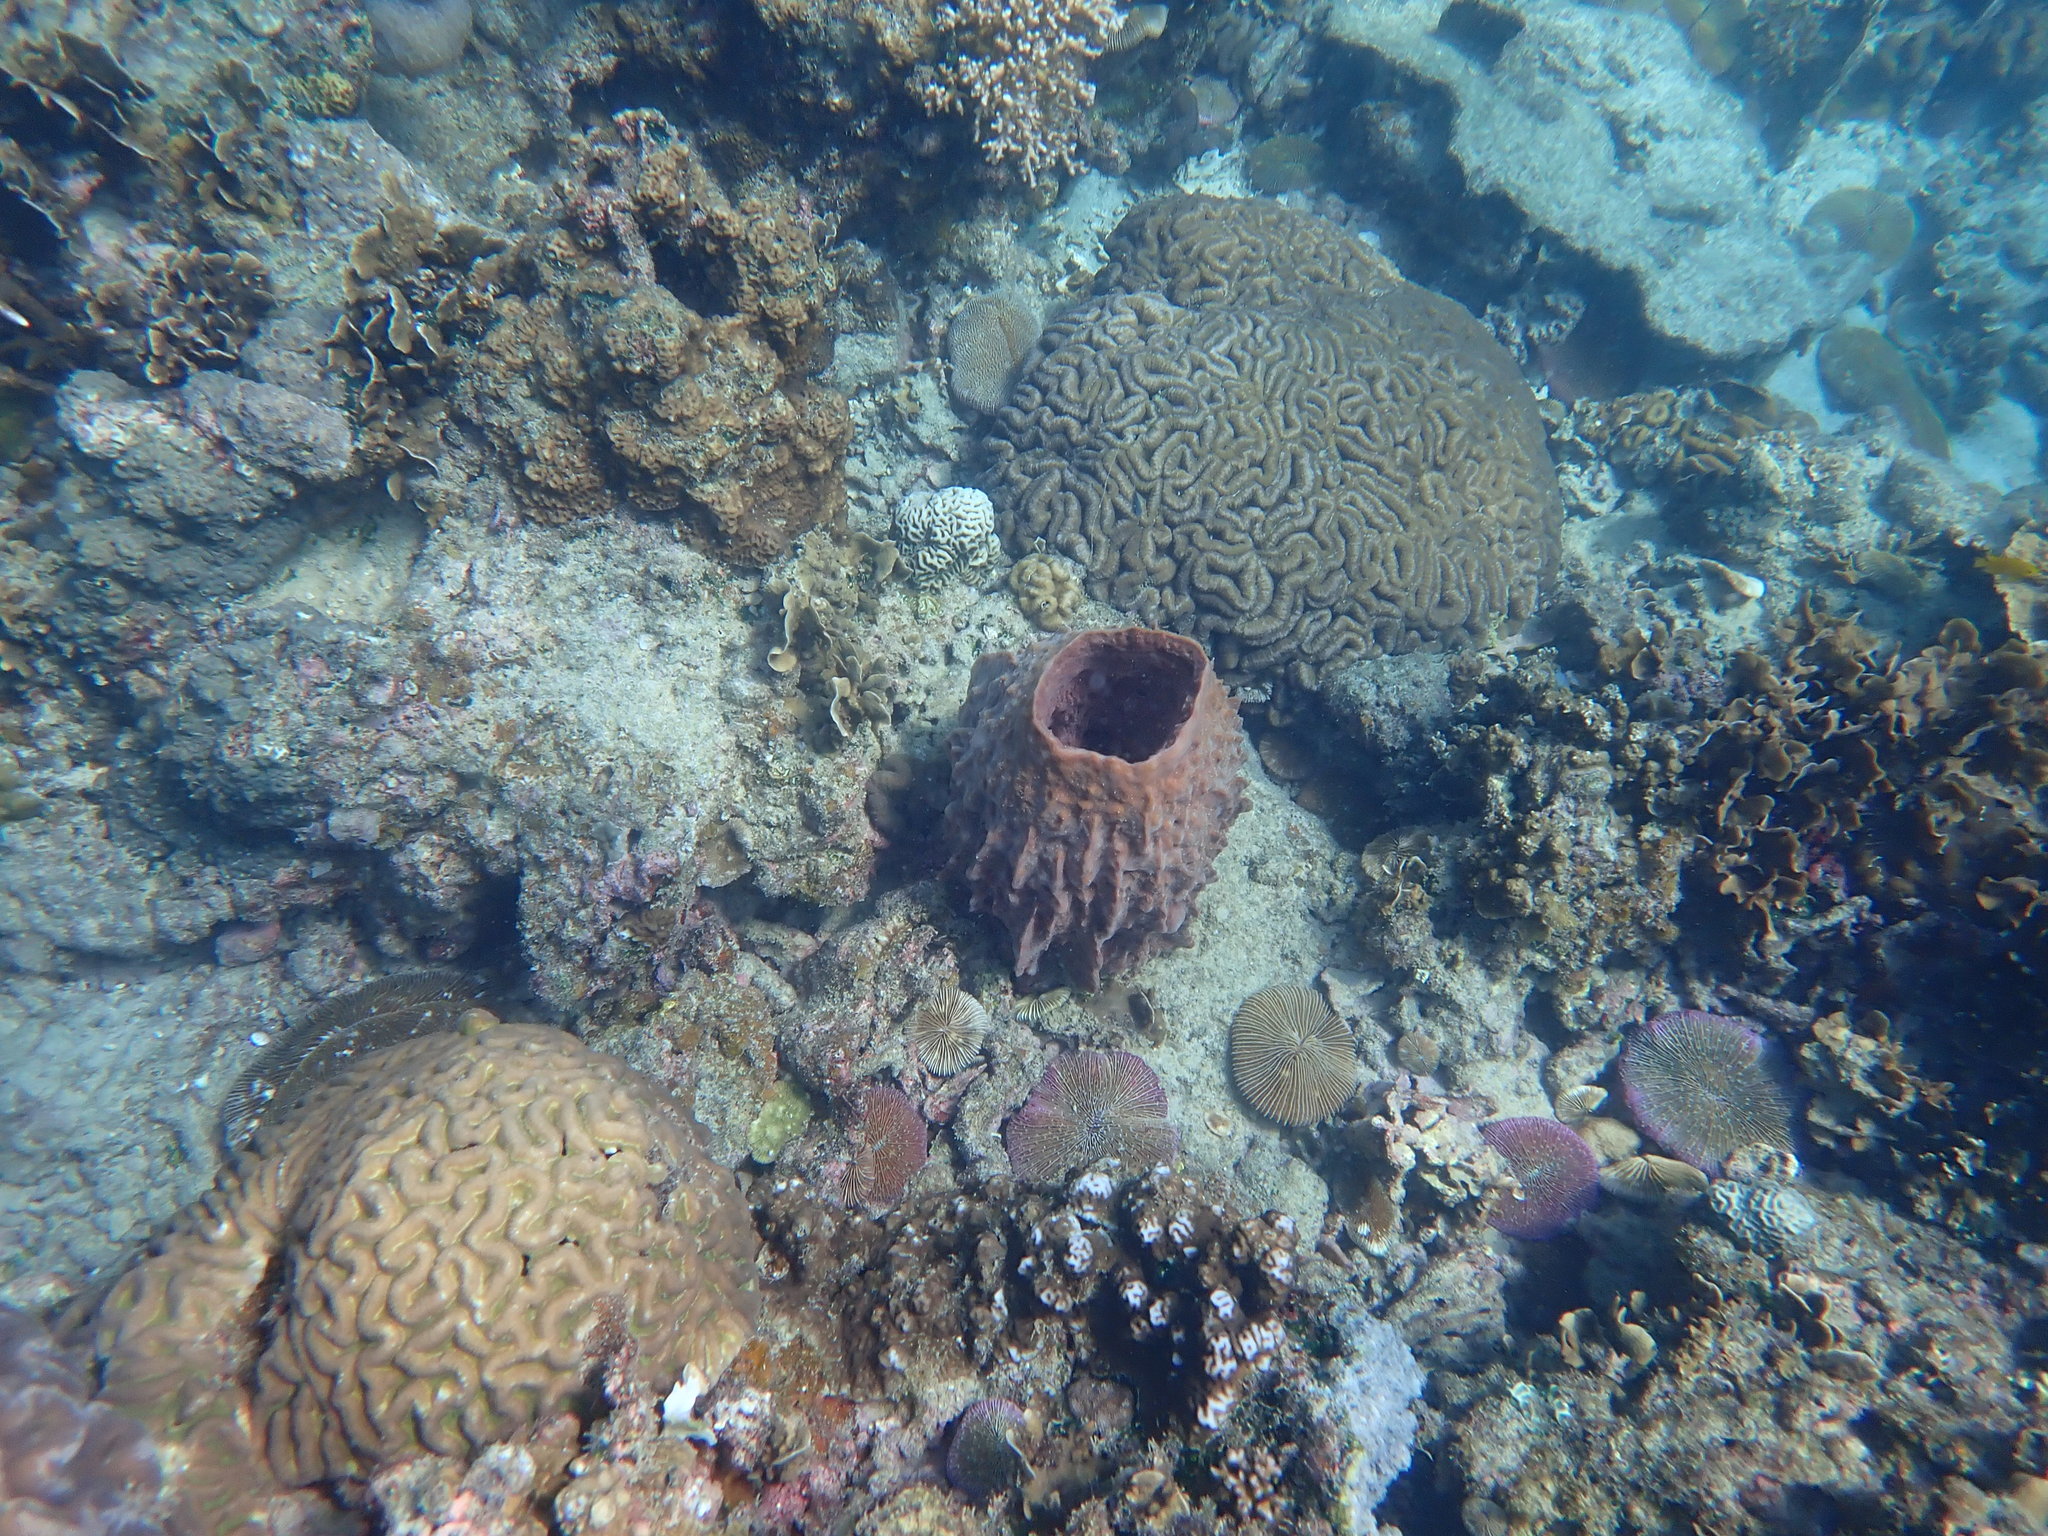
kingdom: Animalia
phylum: Porifera
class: Demospongiae
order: Haplosclerida
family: Petrosiidae
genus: Xestospongia
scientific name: Xestospongia testudinaria
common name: Barrel sponge
